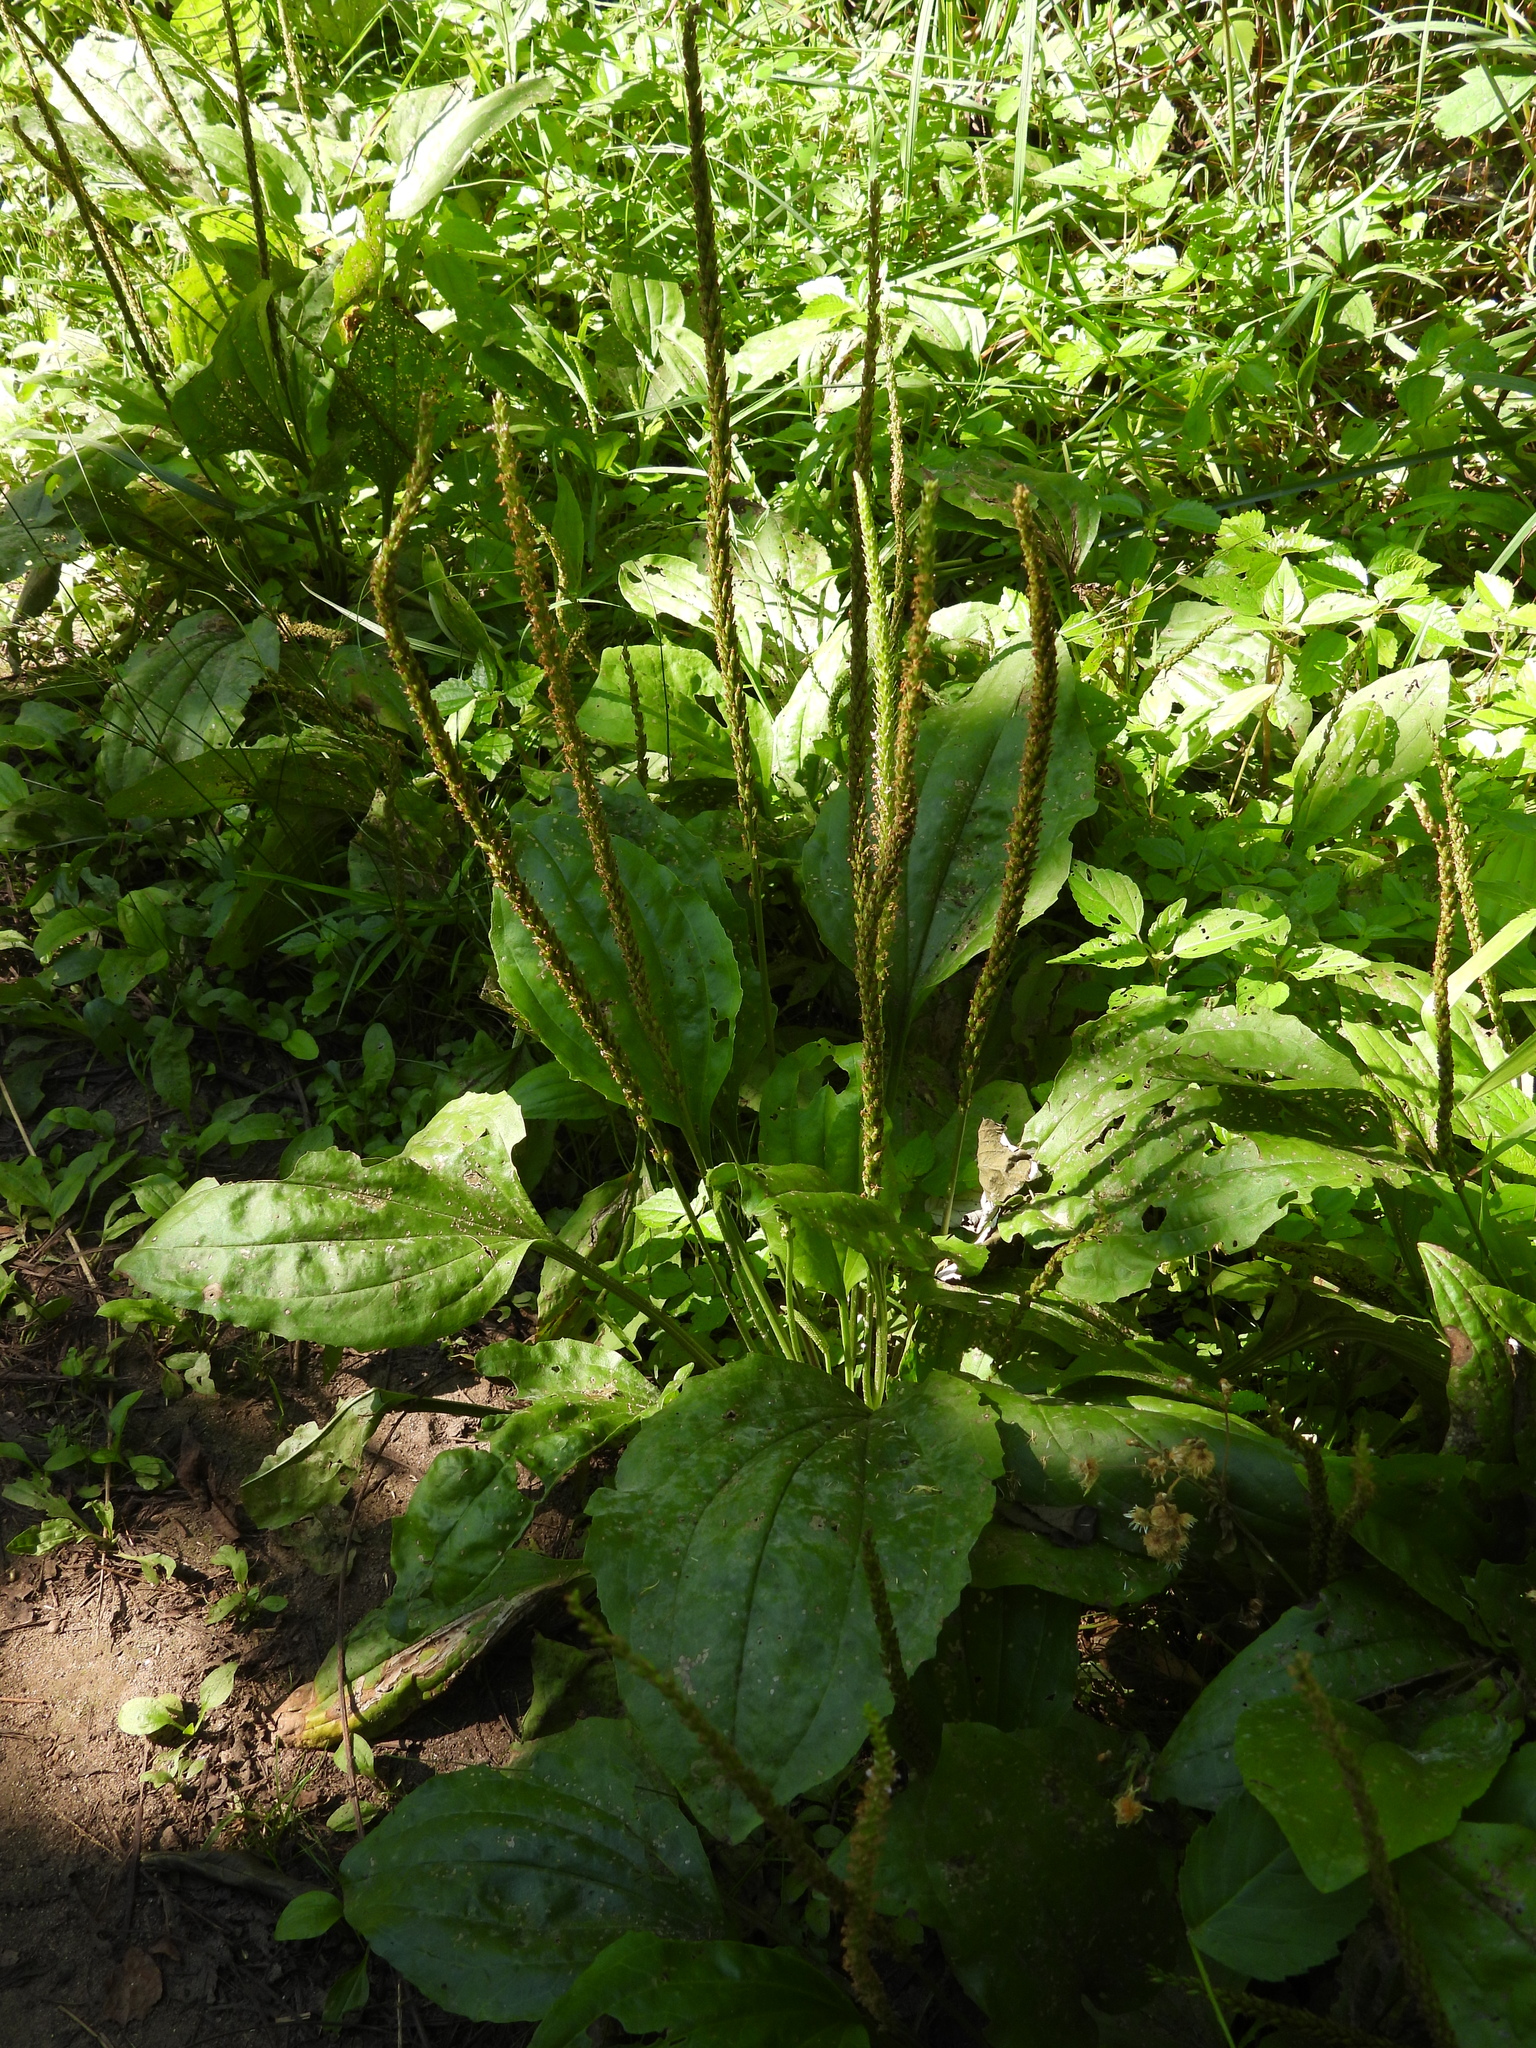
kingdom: Plantae
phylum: Tracheophyta
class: Magnoliopsida
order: Lamiales
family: Plantaginaceae
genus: Plantago
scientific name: Plantago major
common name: Common plantain
